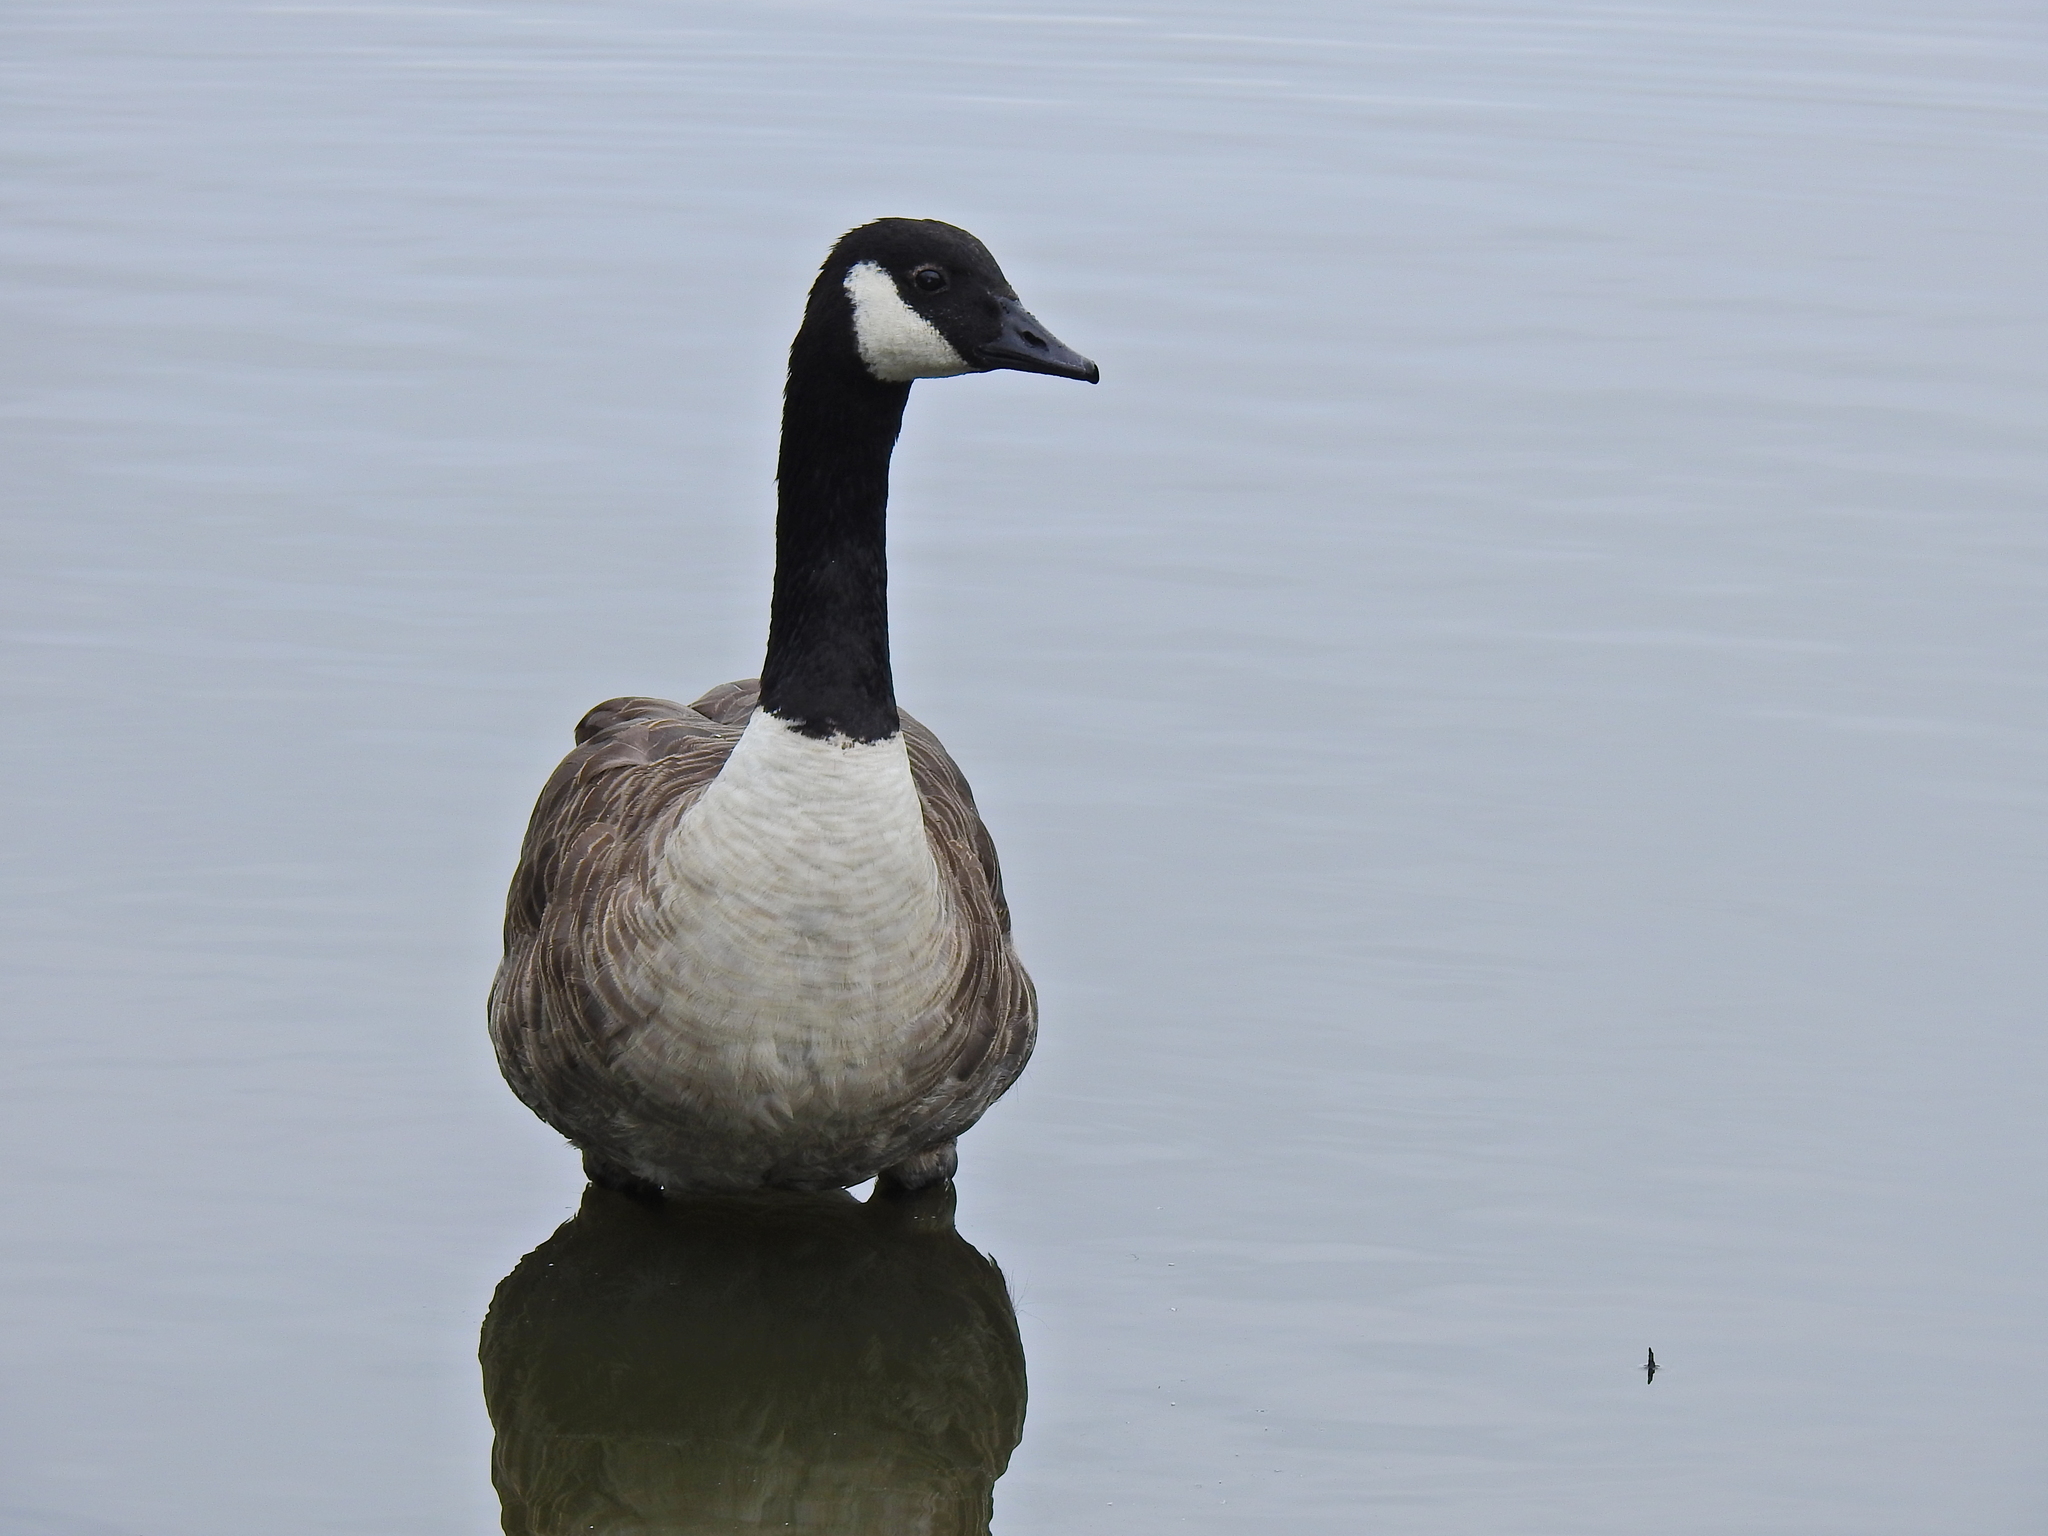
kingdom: Animalia
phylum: Chordata
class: Aves
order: Anseriformes
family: Anatidae
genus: Branta
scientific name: Branta canadensis
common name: Canada goose
